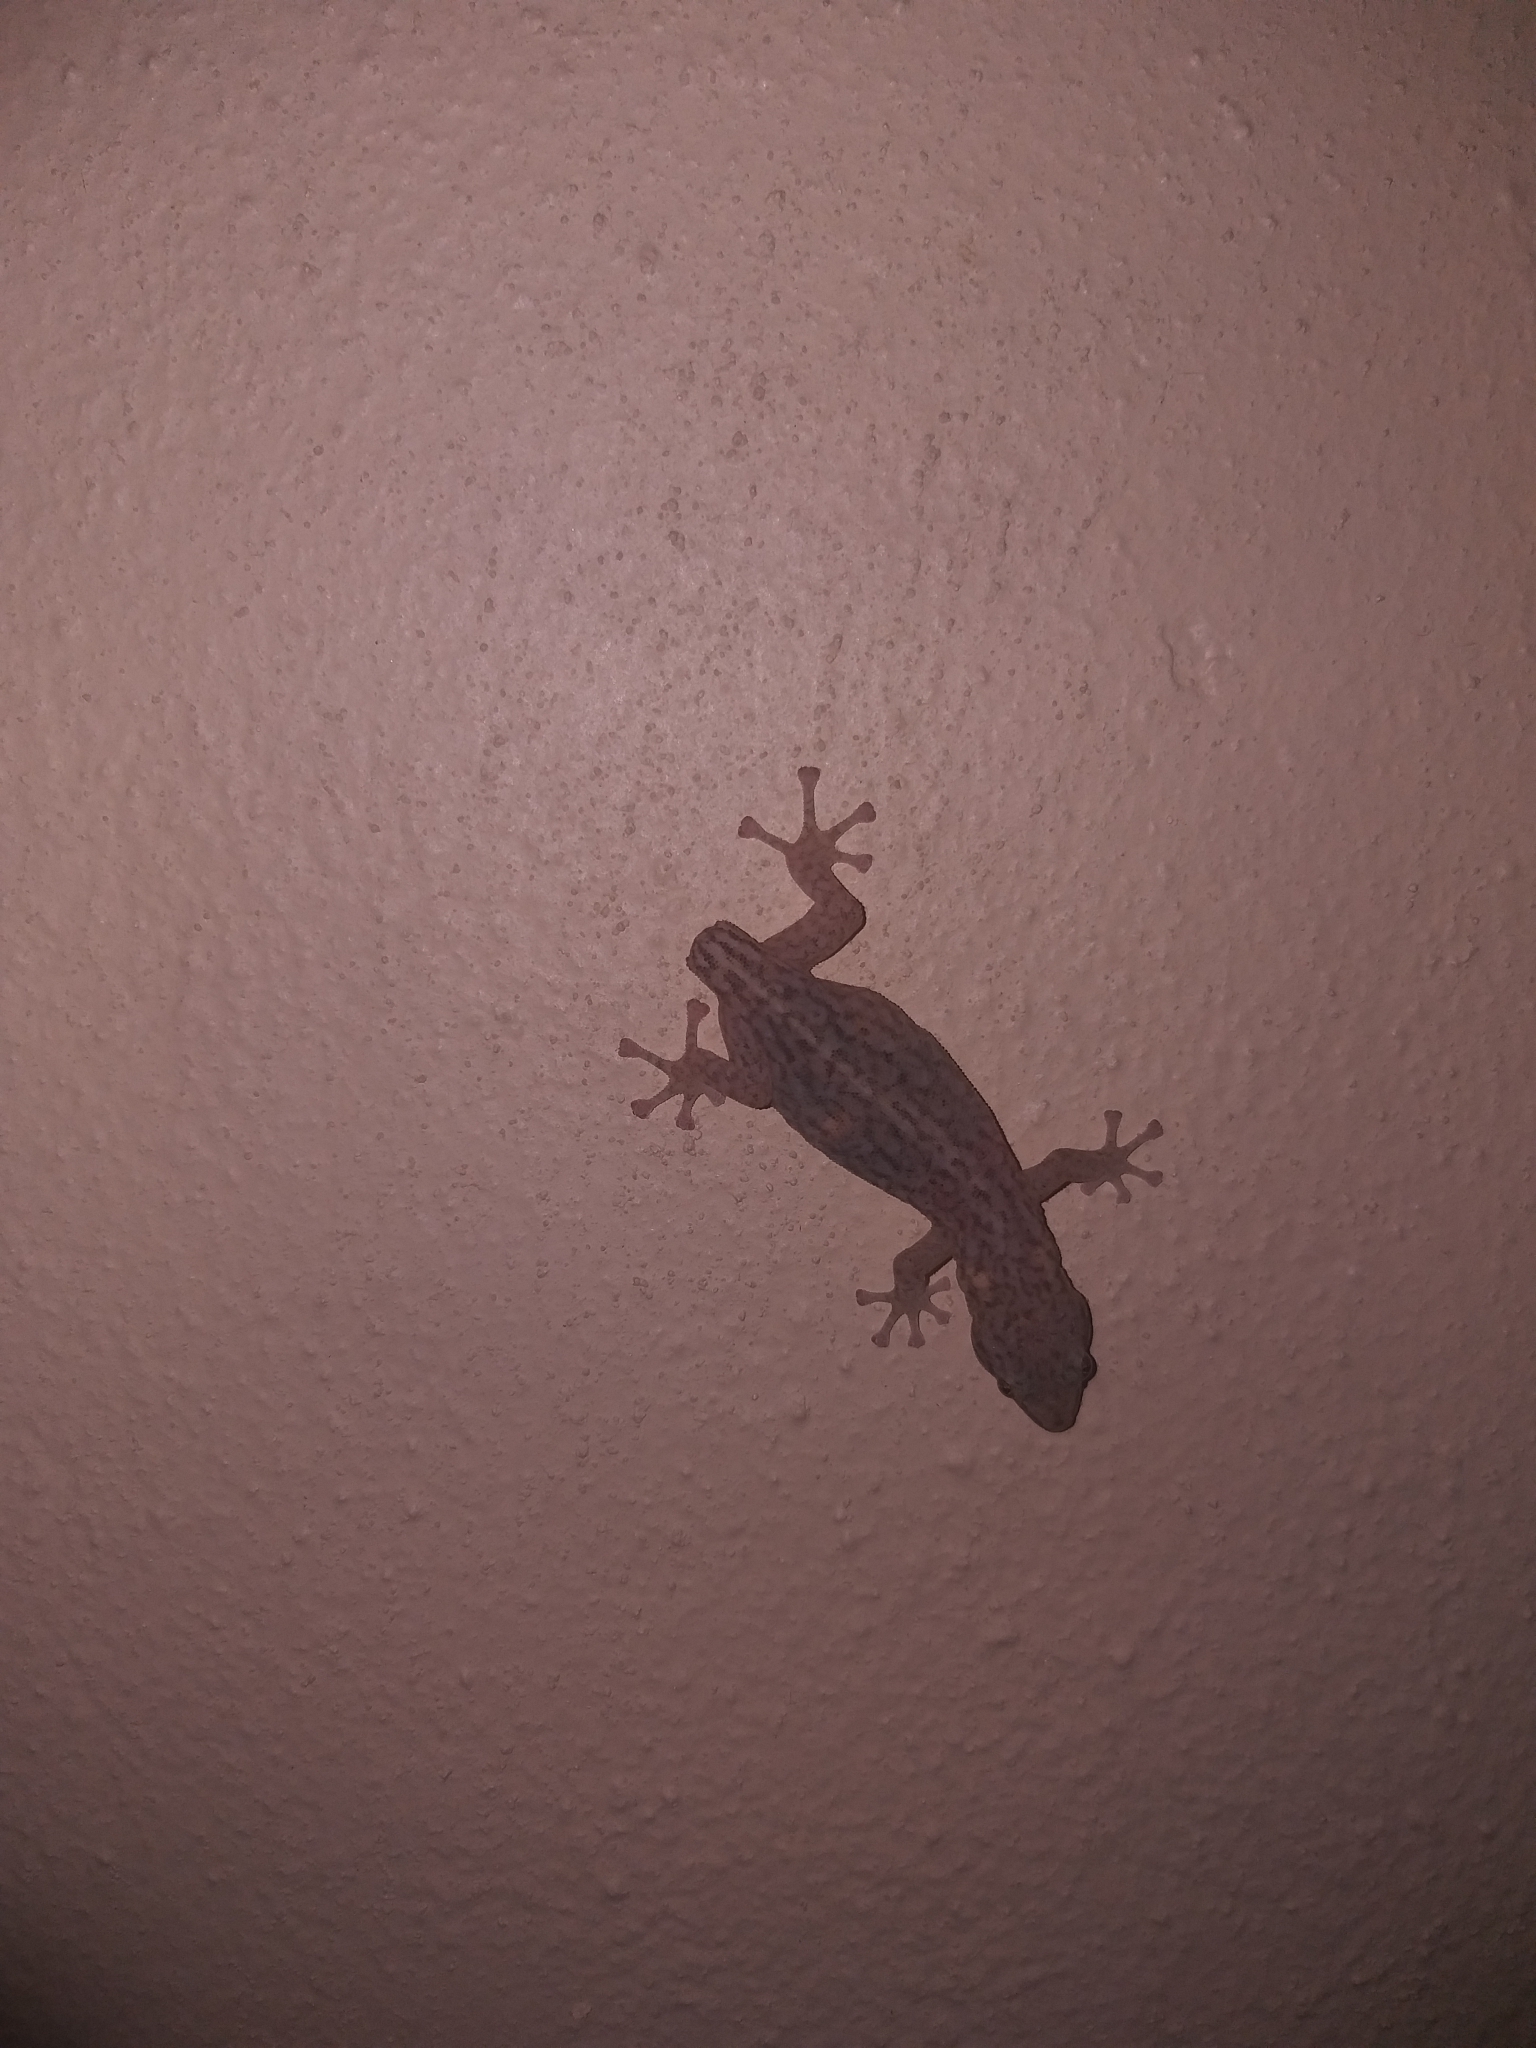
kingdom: Animalia
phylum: Chordata
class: Squamata
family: Gekkonidae
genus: Afrogecko
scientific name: Afrogecko porphyreus
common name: Marbled leaf-toed gecko
